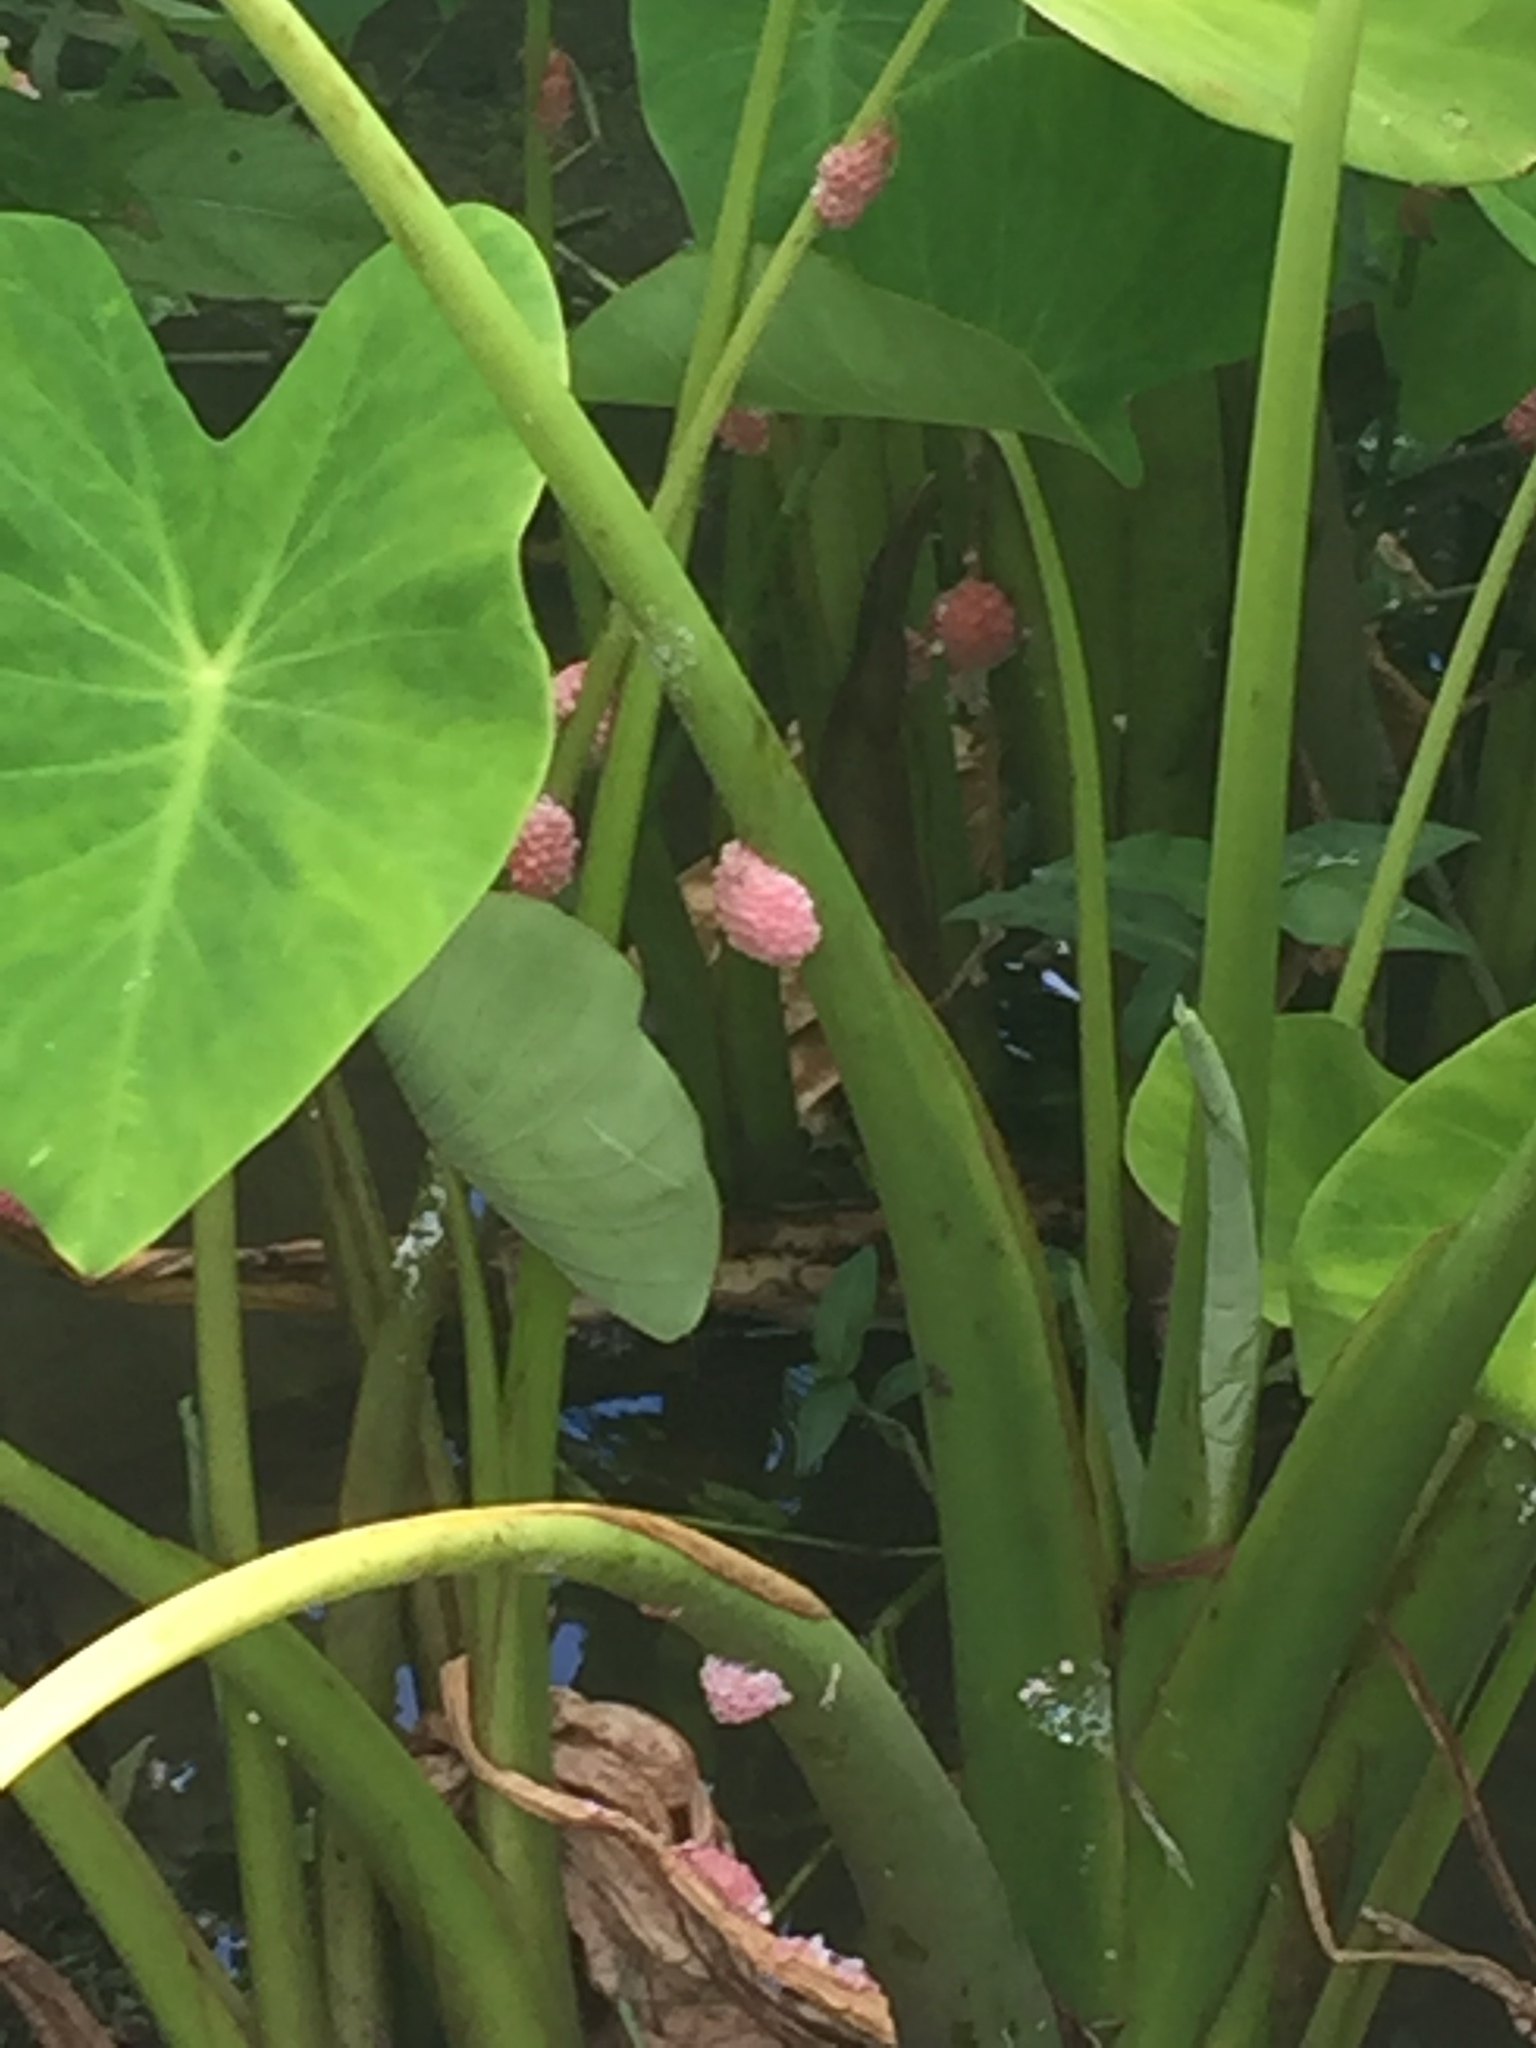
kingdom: Animalia
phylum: Mollusca
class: Gastropoda
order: Architaenioglossa
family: Ampullariidae
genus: Pomacea
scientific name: Pomacea canaliculata
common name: Channeled applesnail
